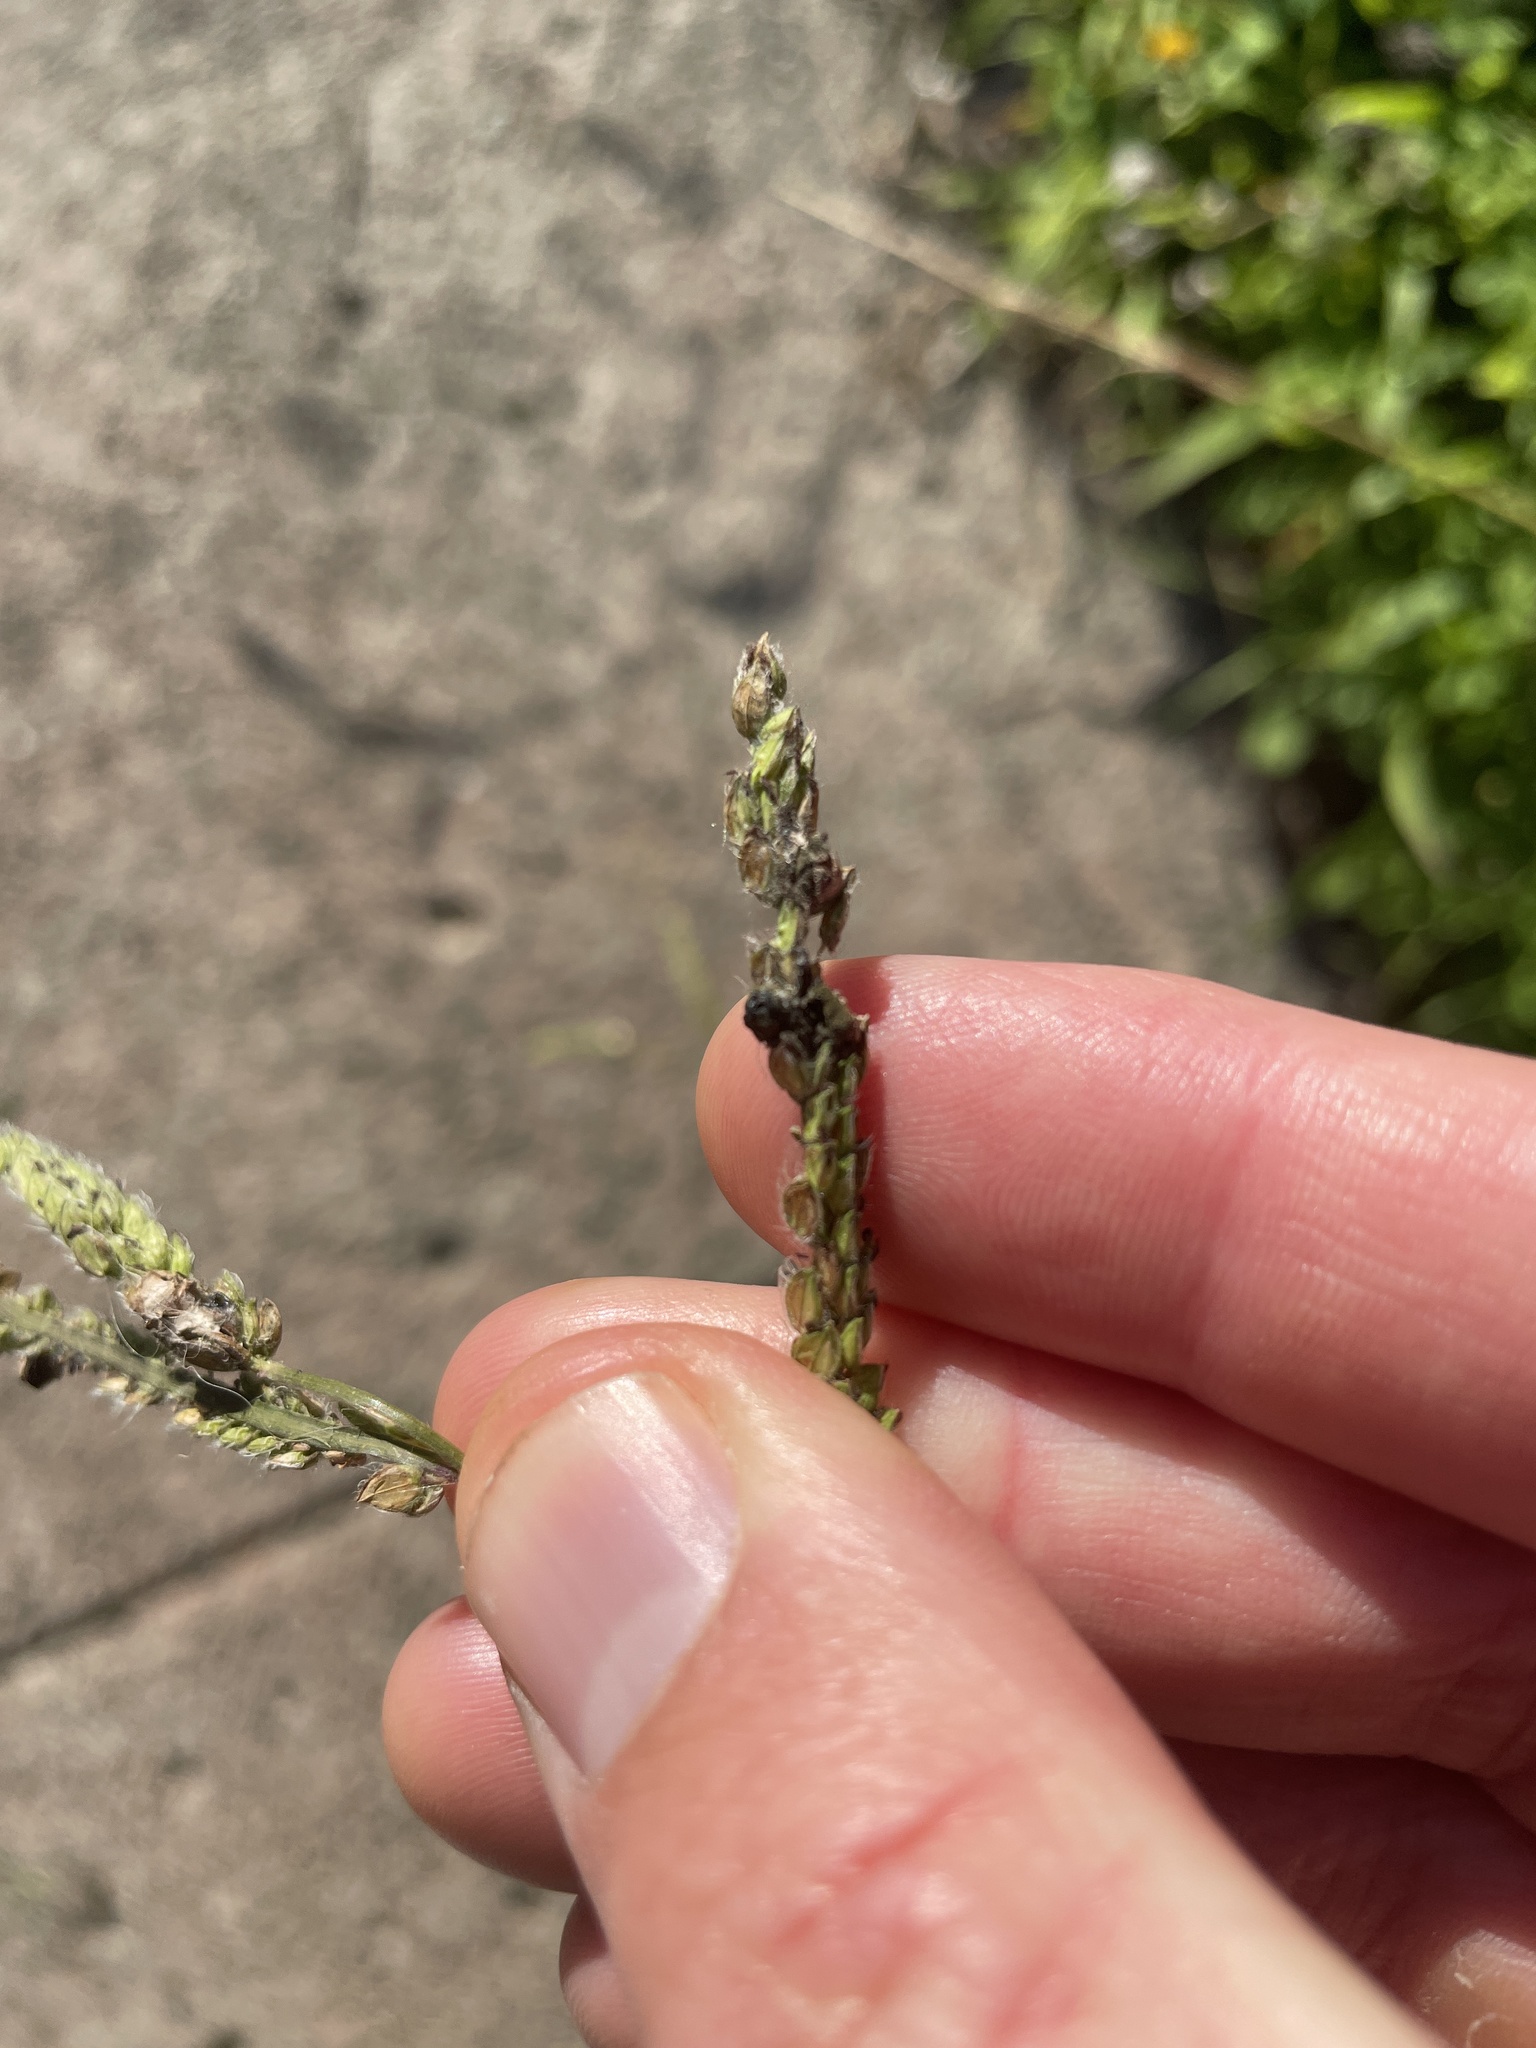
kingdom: Fungi
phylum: Ascomycota
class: Dothideomycetes
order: Pleosporales
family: Didymellaceae
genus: Epicoccum
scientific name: Epicoccum andropogonis
